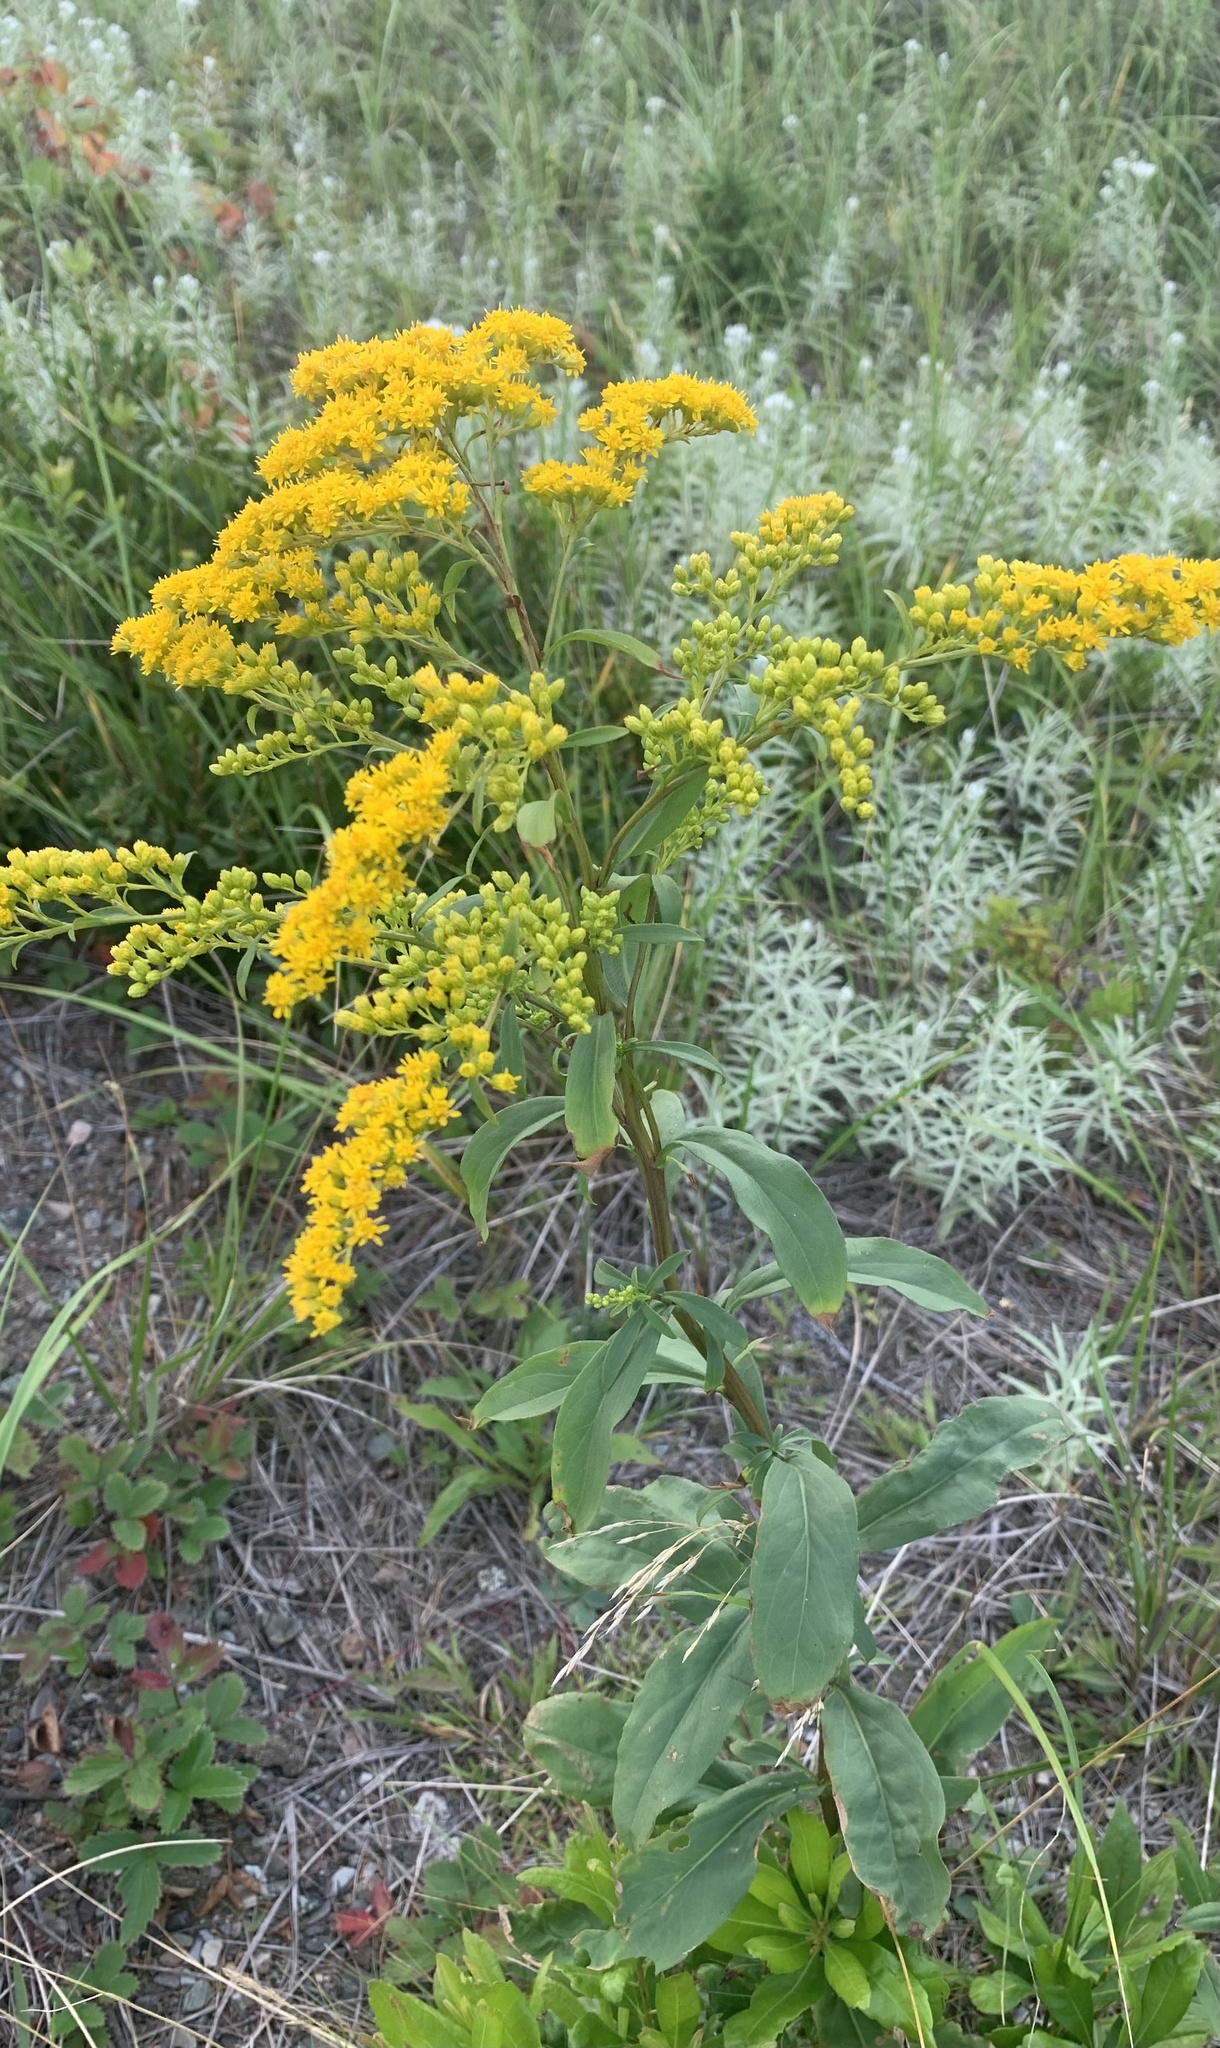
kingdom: Plantae
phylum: Tracheophyta
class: Magnoliopsida
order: Asterales
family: Asteraceae
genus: Solidago
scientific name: Solidago juncea
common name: Early goldenrod
